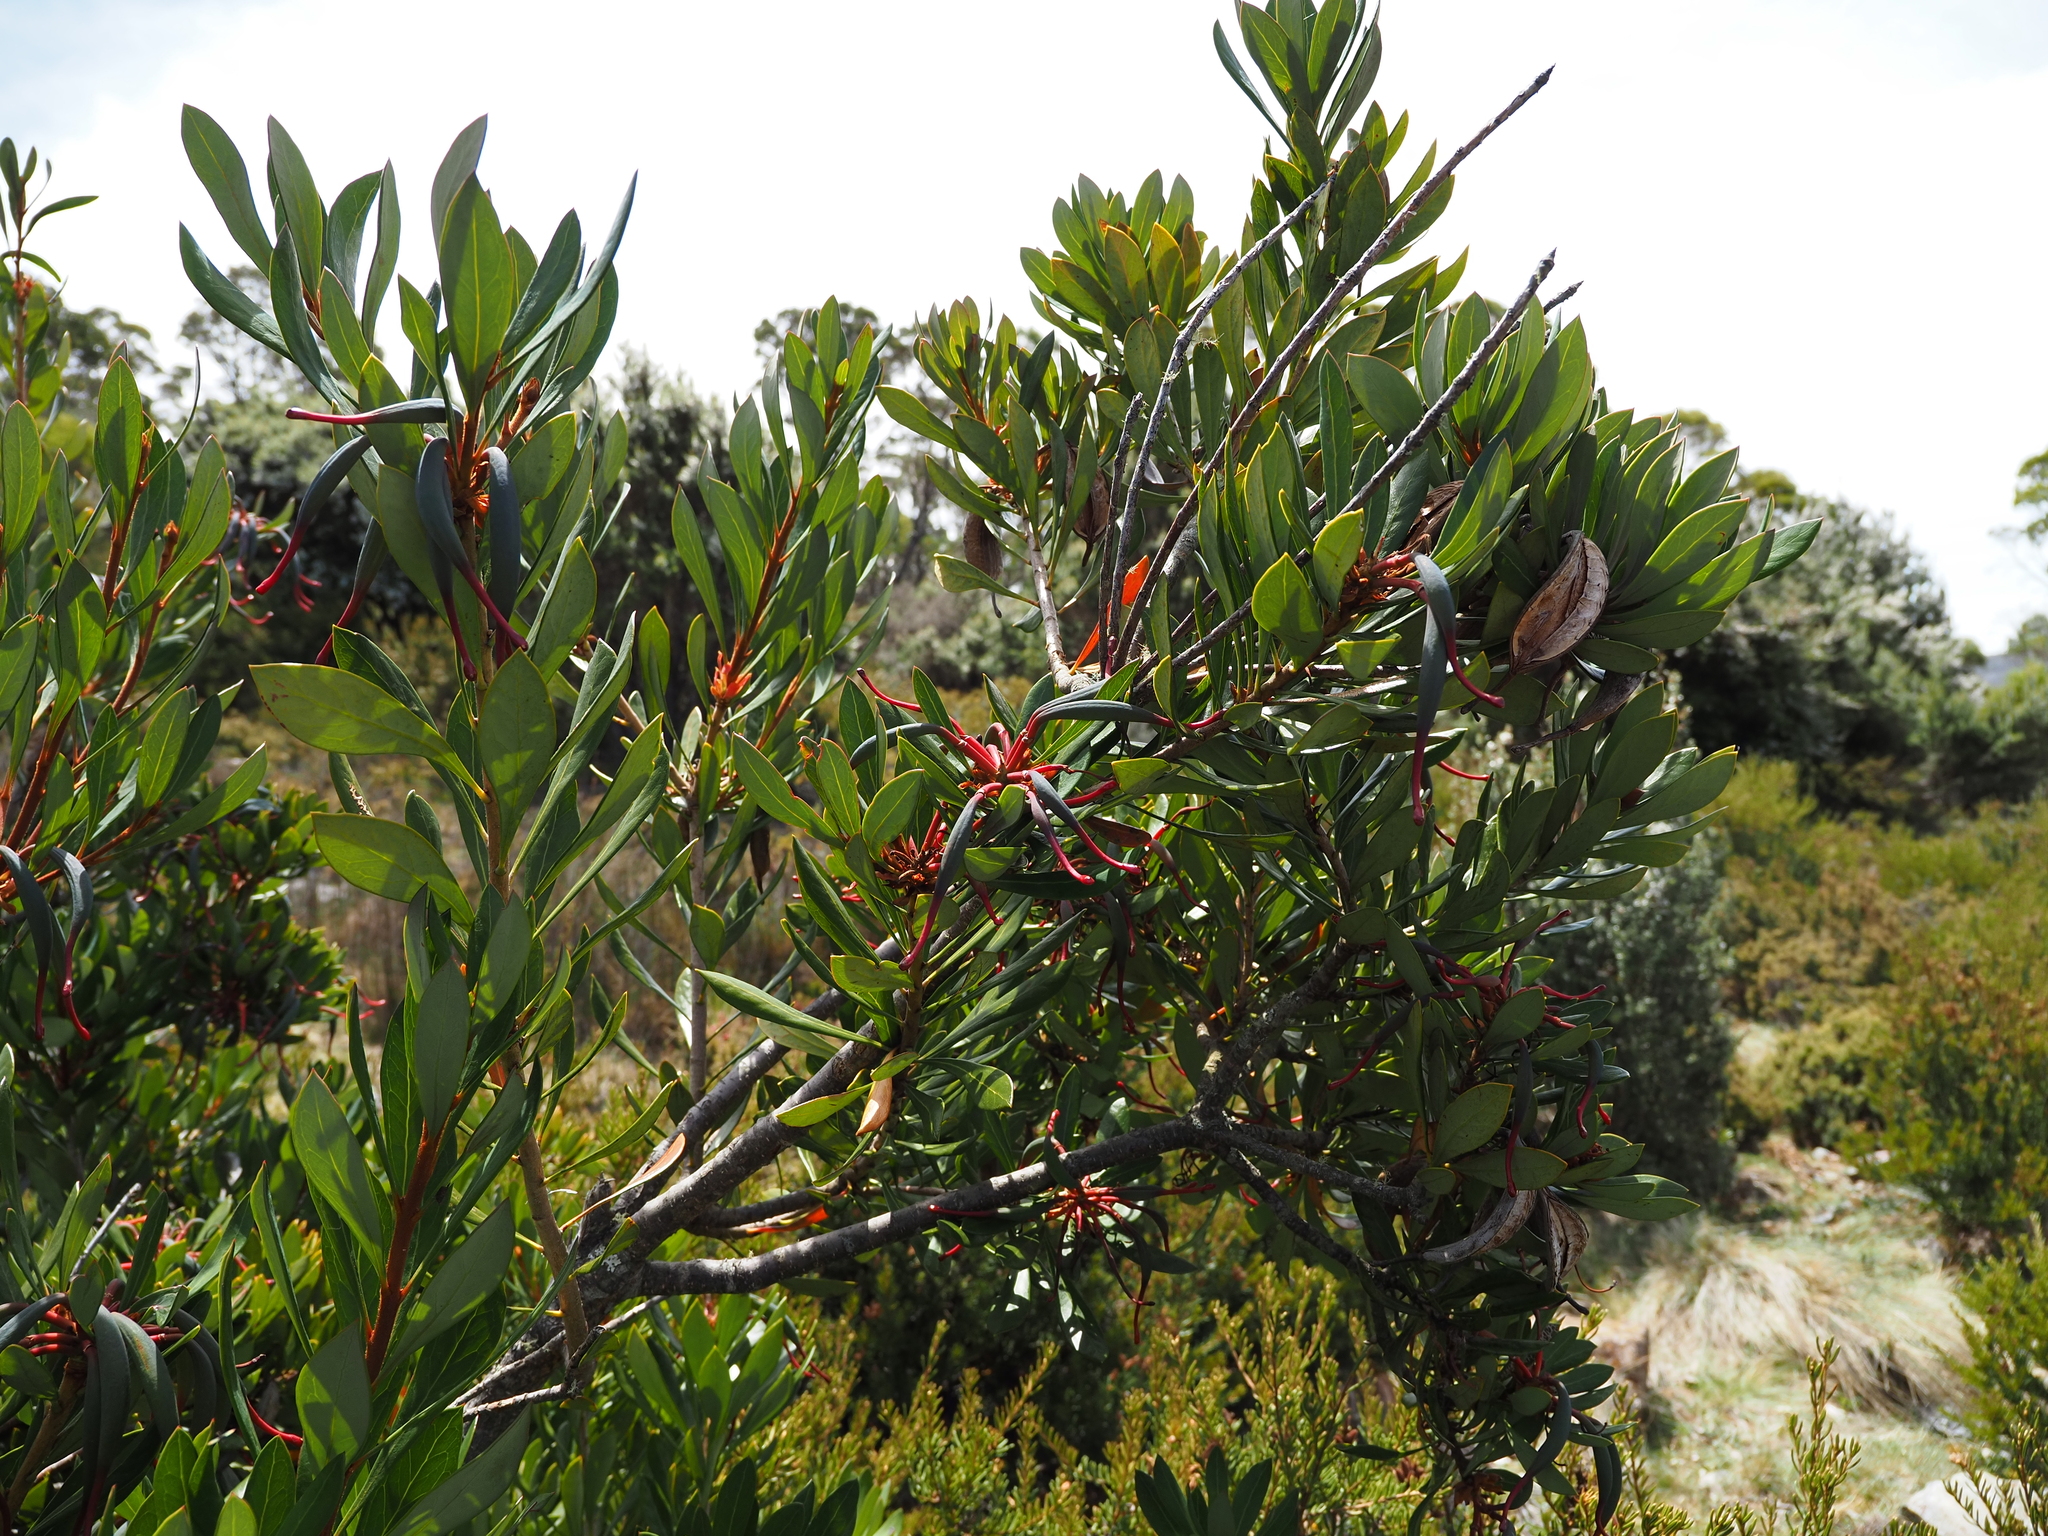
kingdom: Plantae
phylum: Tracheophyta
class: Magnoliopsida
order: Proteales
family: Proteaceae
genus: Telopea
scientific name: Telopea truncata
